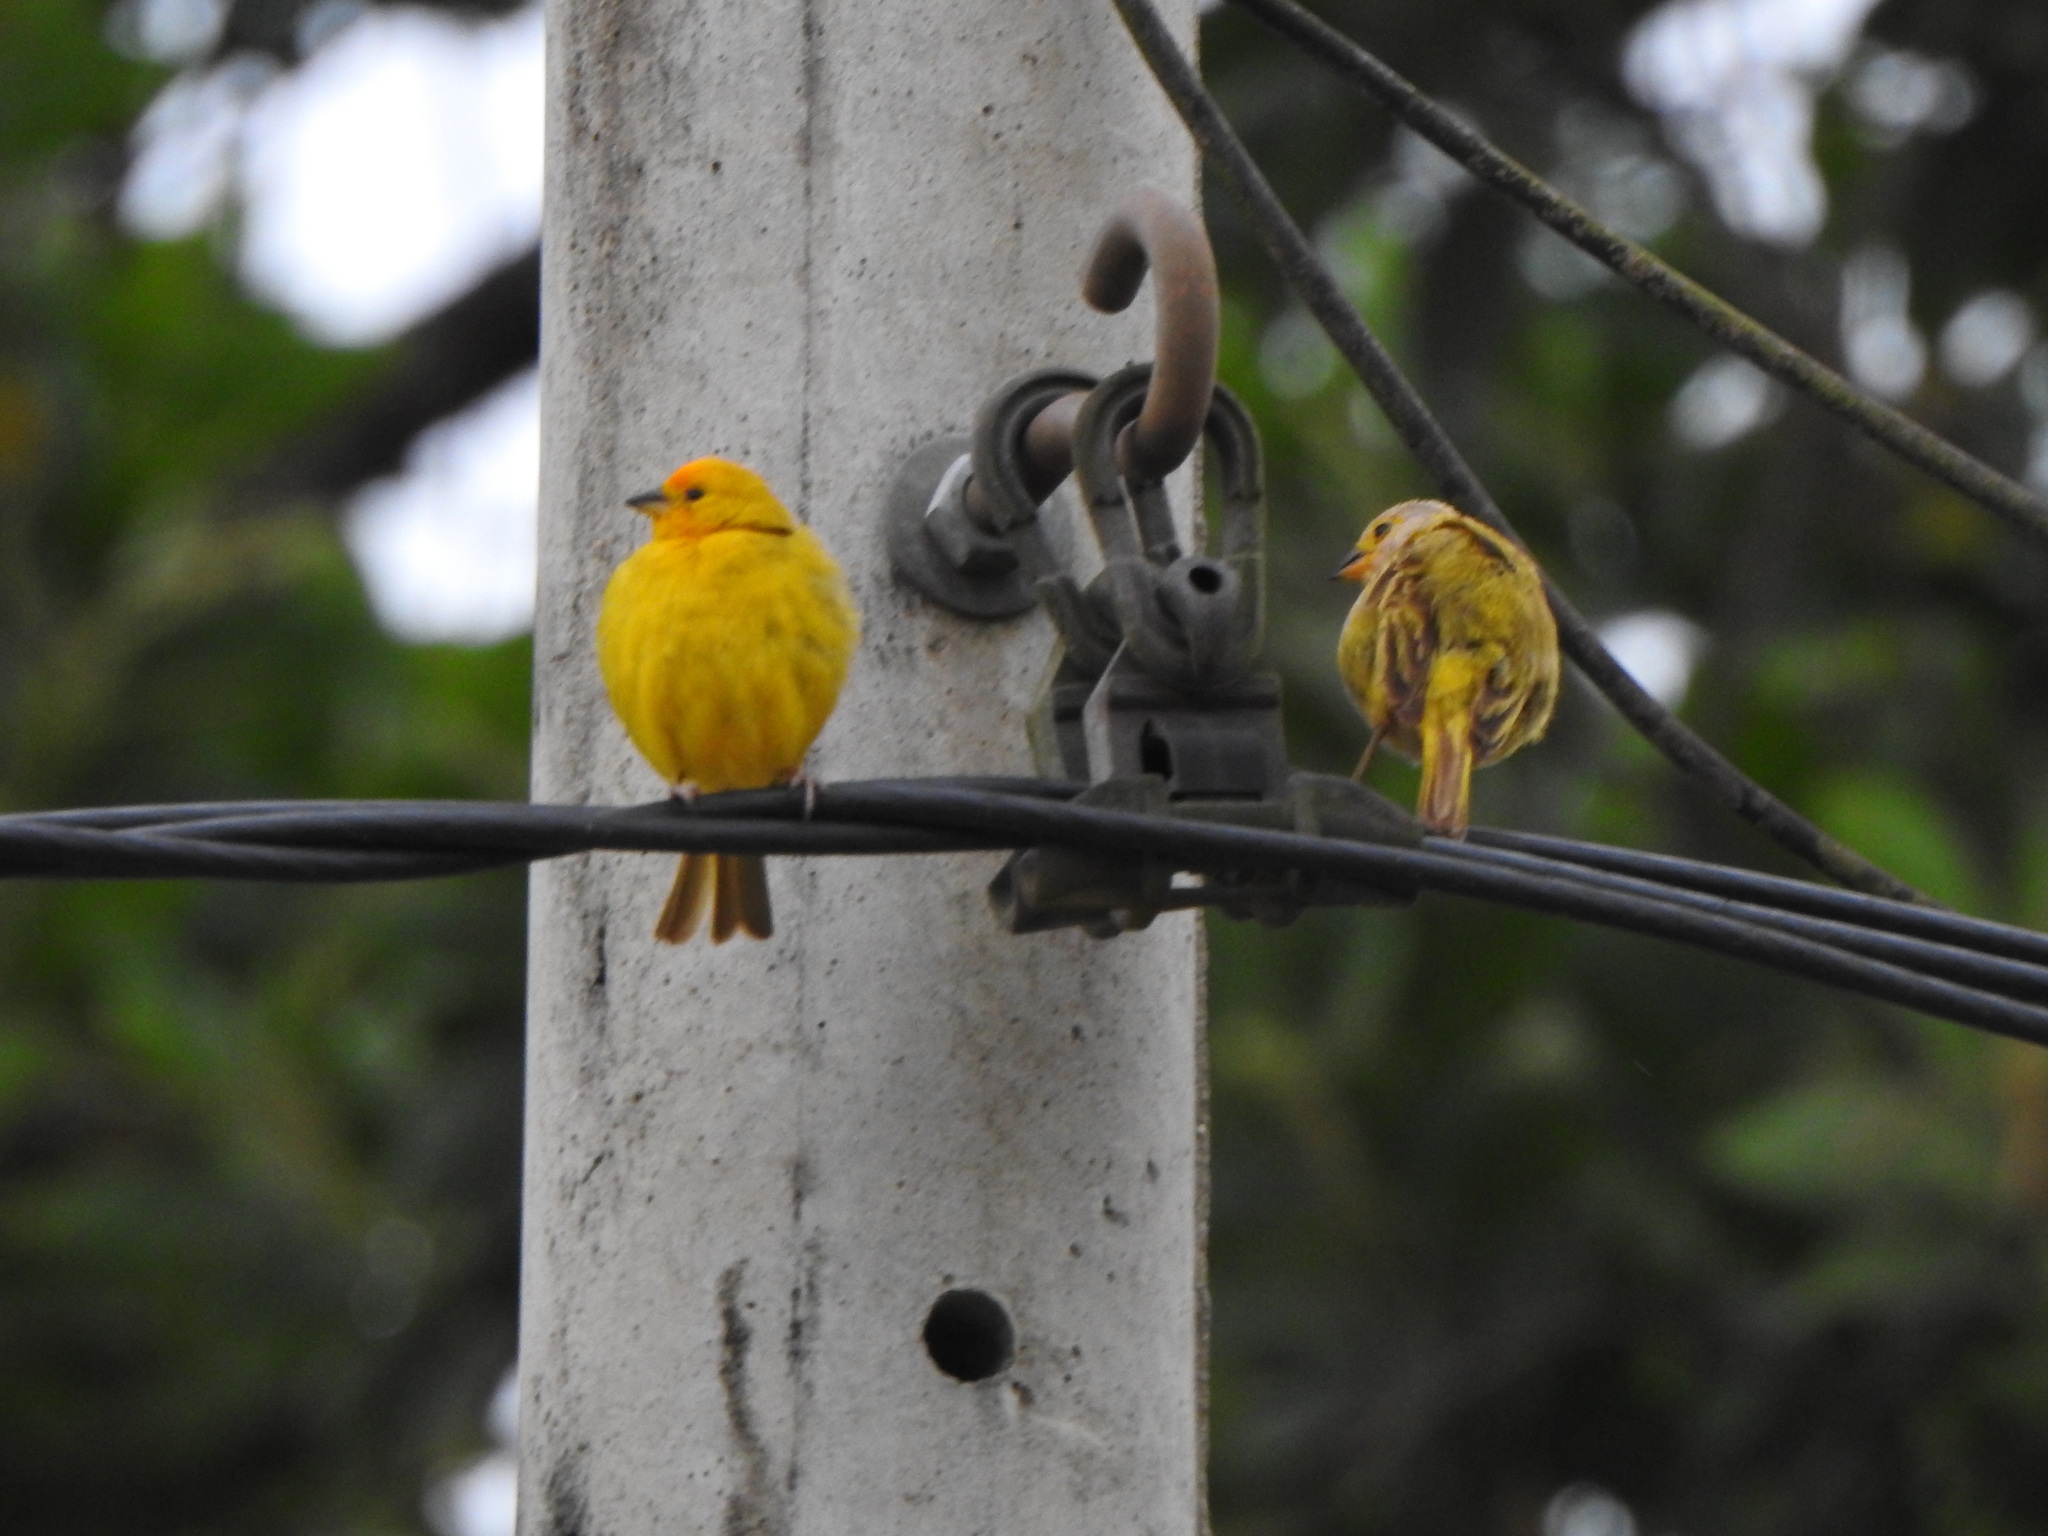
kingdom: Animalia
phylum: Chordata
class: Aves
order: Passeriformes
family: Thraupidae
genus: Sicalis
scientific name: Sicalis flaveola
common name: Saffron finch
